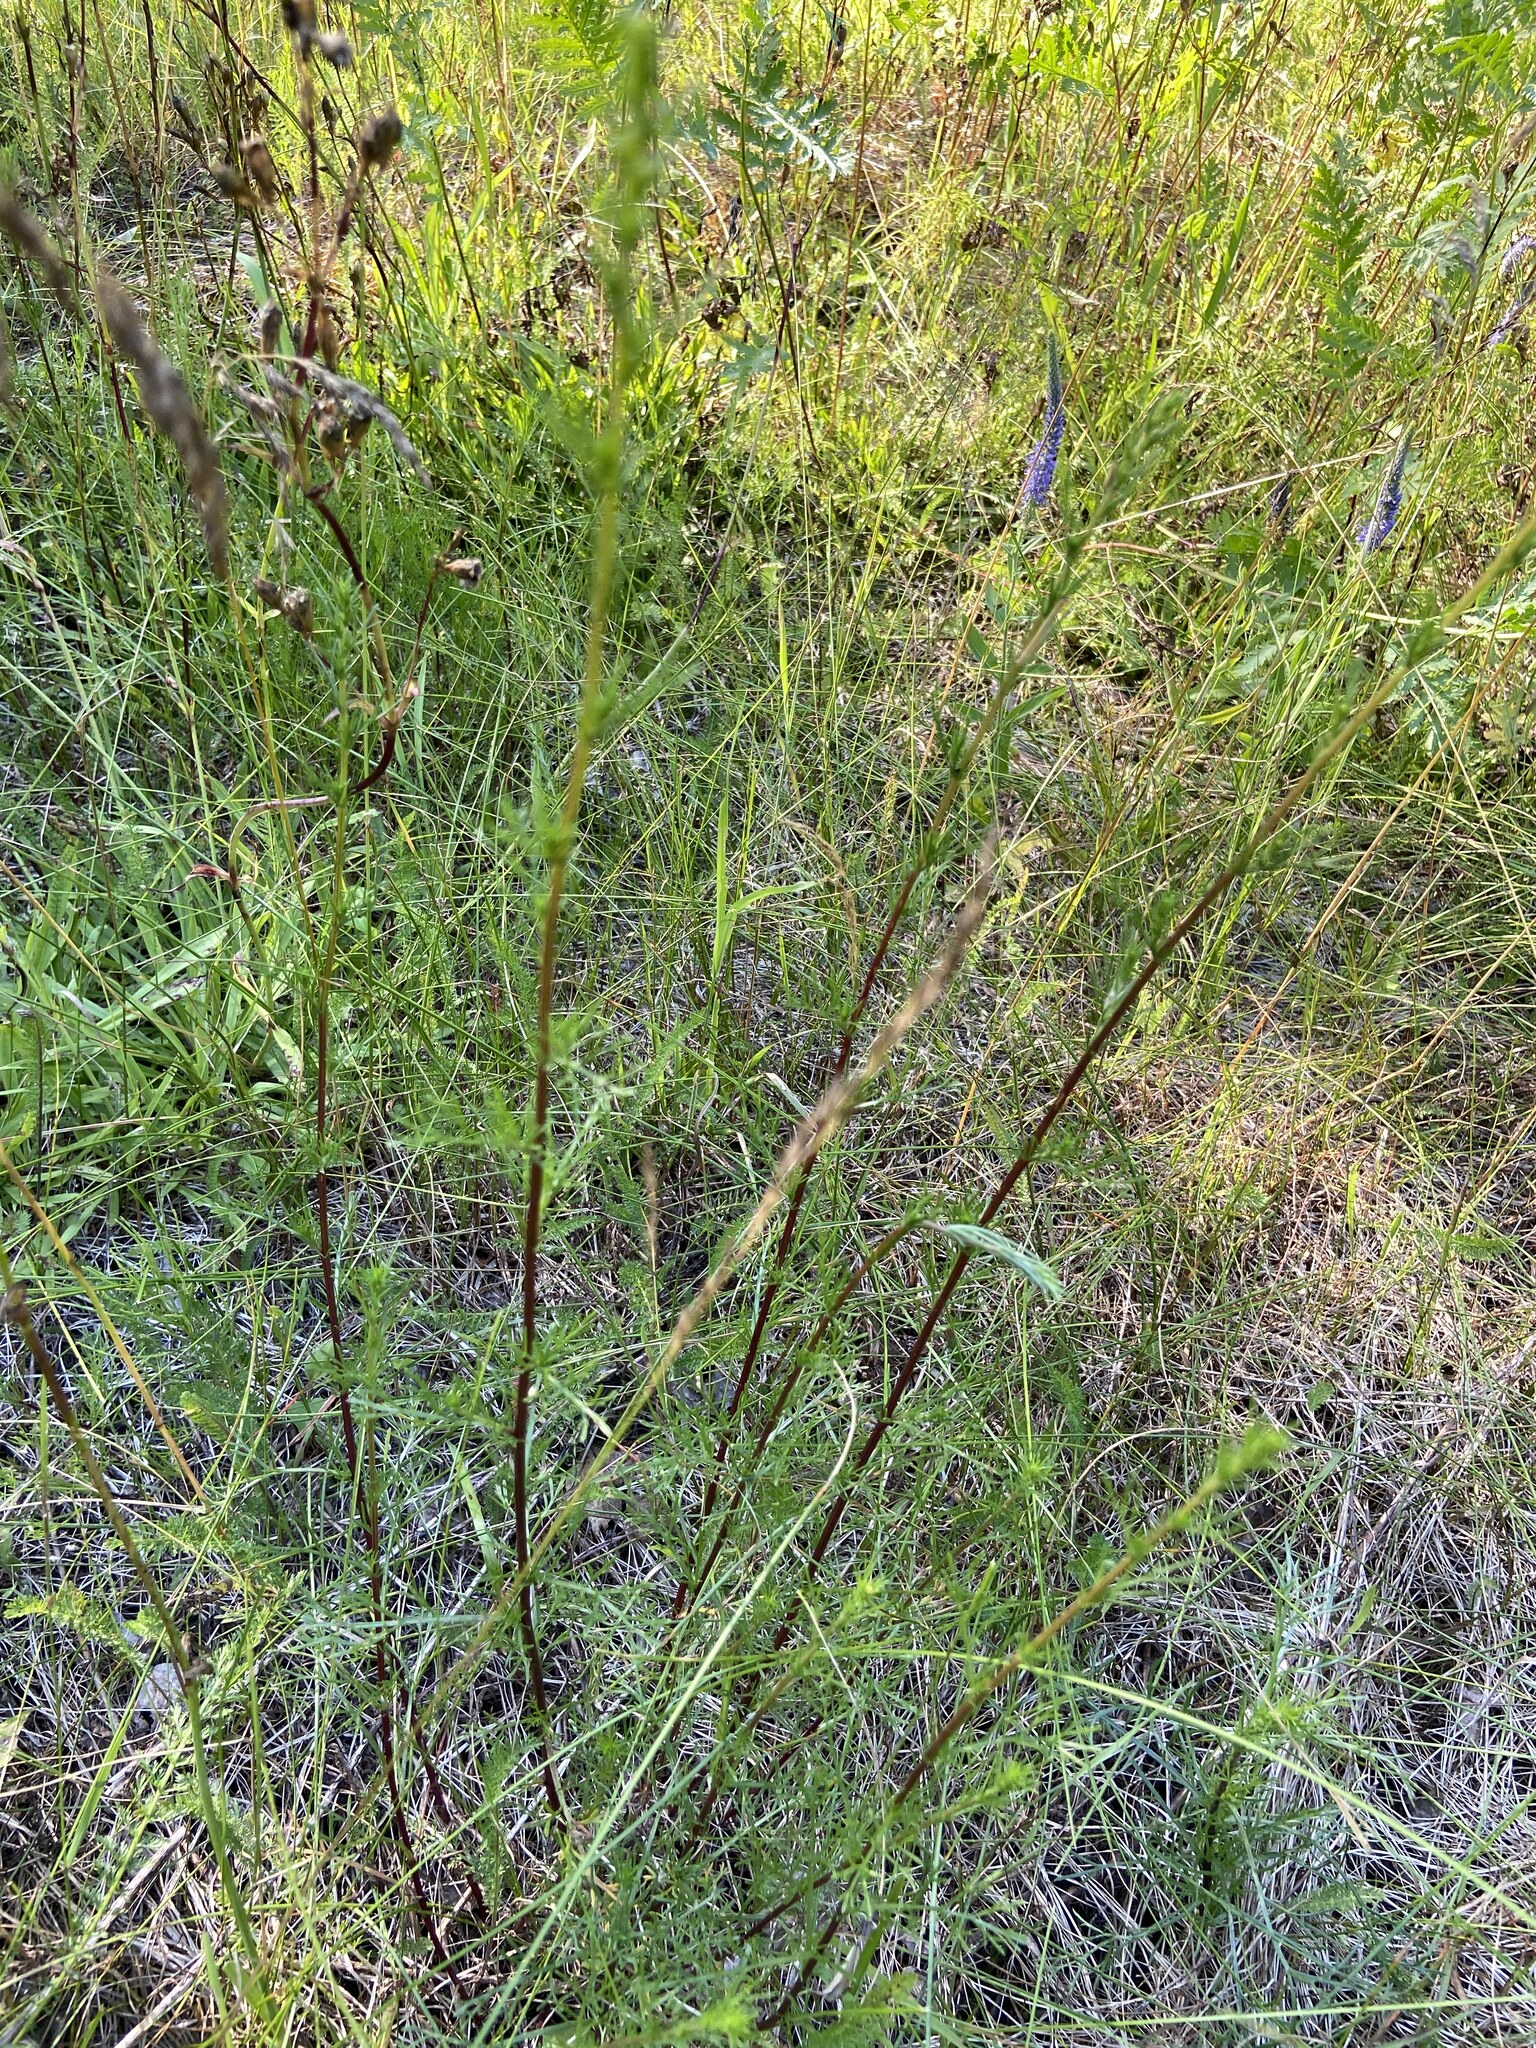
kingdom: Plantae
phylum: Tracheophyta
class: Magnoliopsida
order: Asterales
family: Asteraceae
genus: Artemisia
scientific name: Artemisia campestris
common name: Field wormwood
